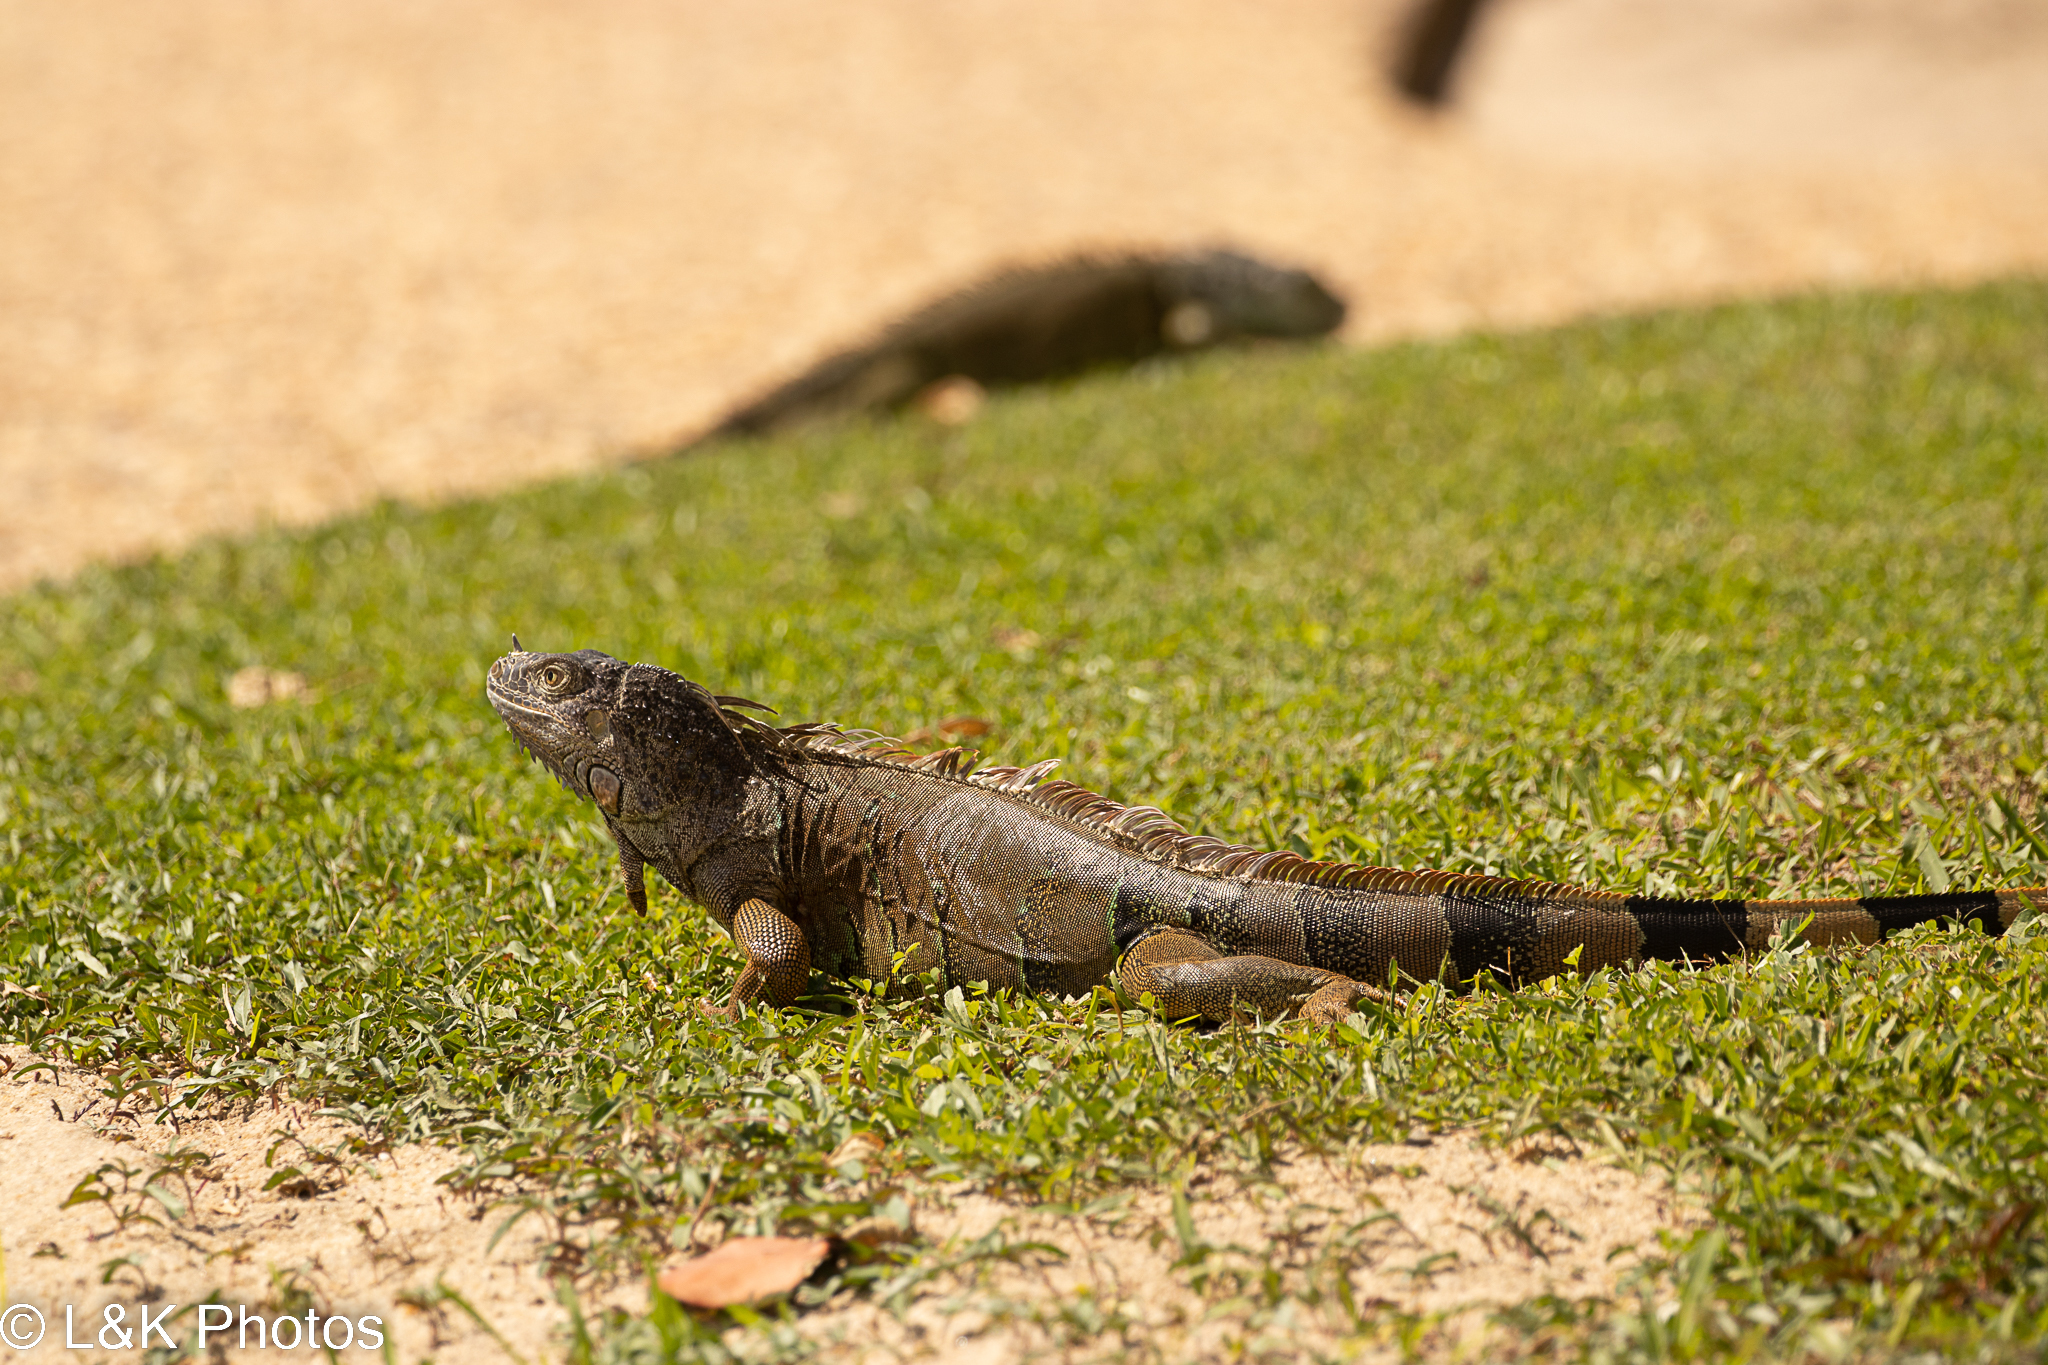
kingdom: Animalia
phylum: Chordata
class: Squamata
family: Iguanidae
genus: Iguana
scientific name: Iguana iguana
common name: Green iguana
